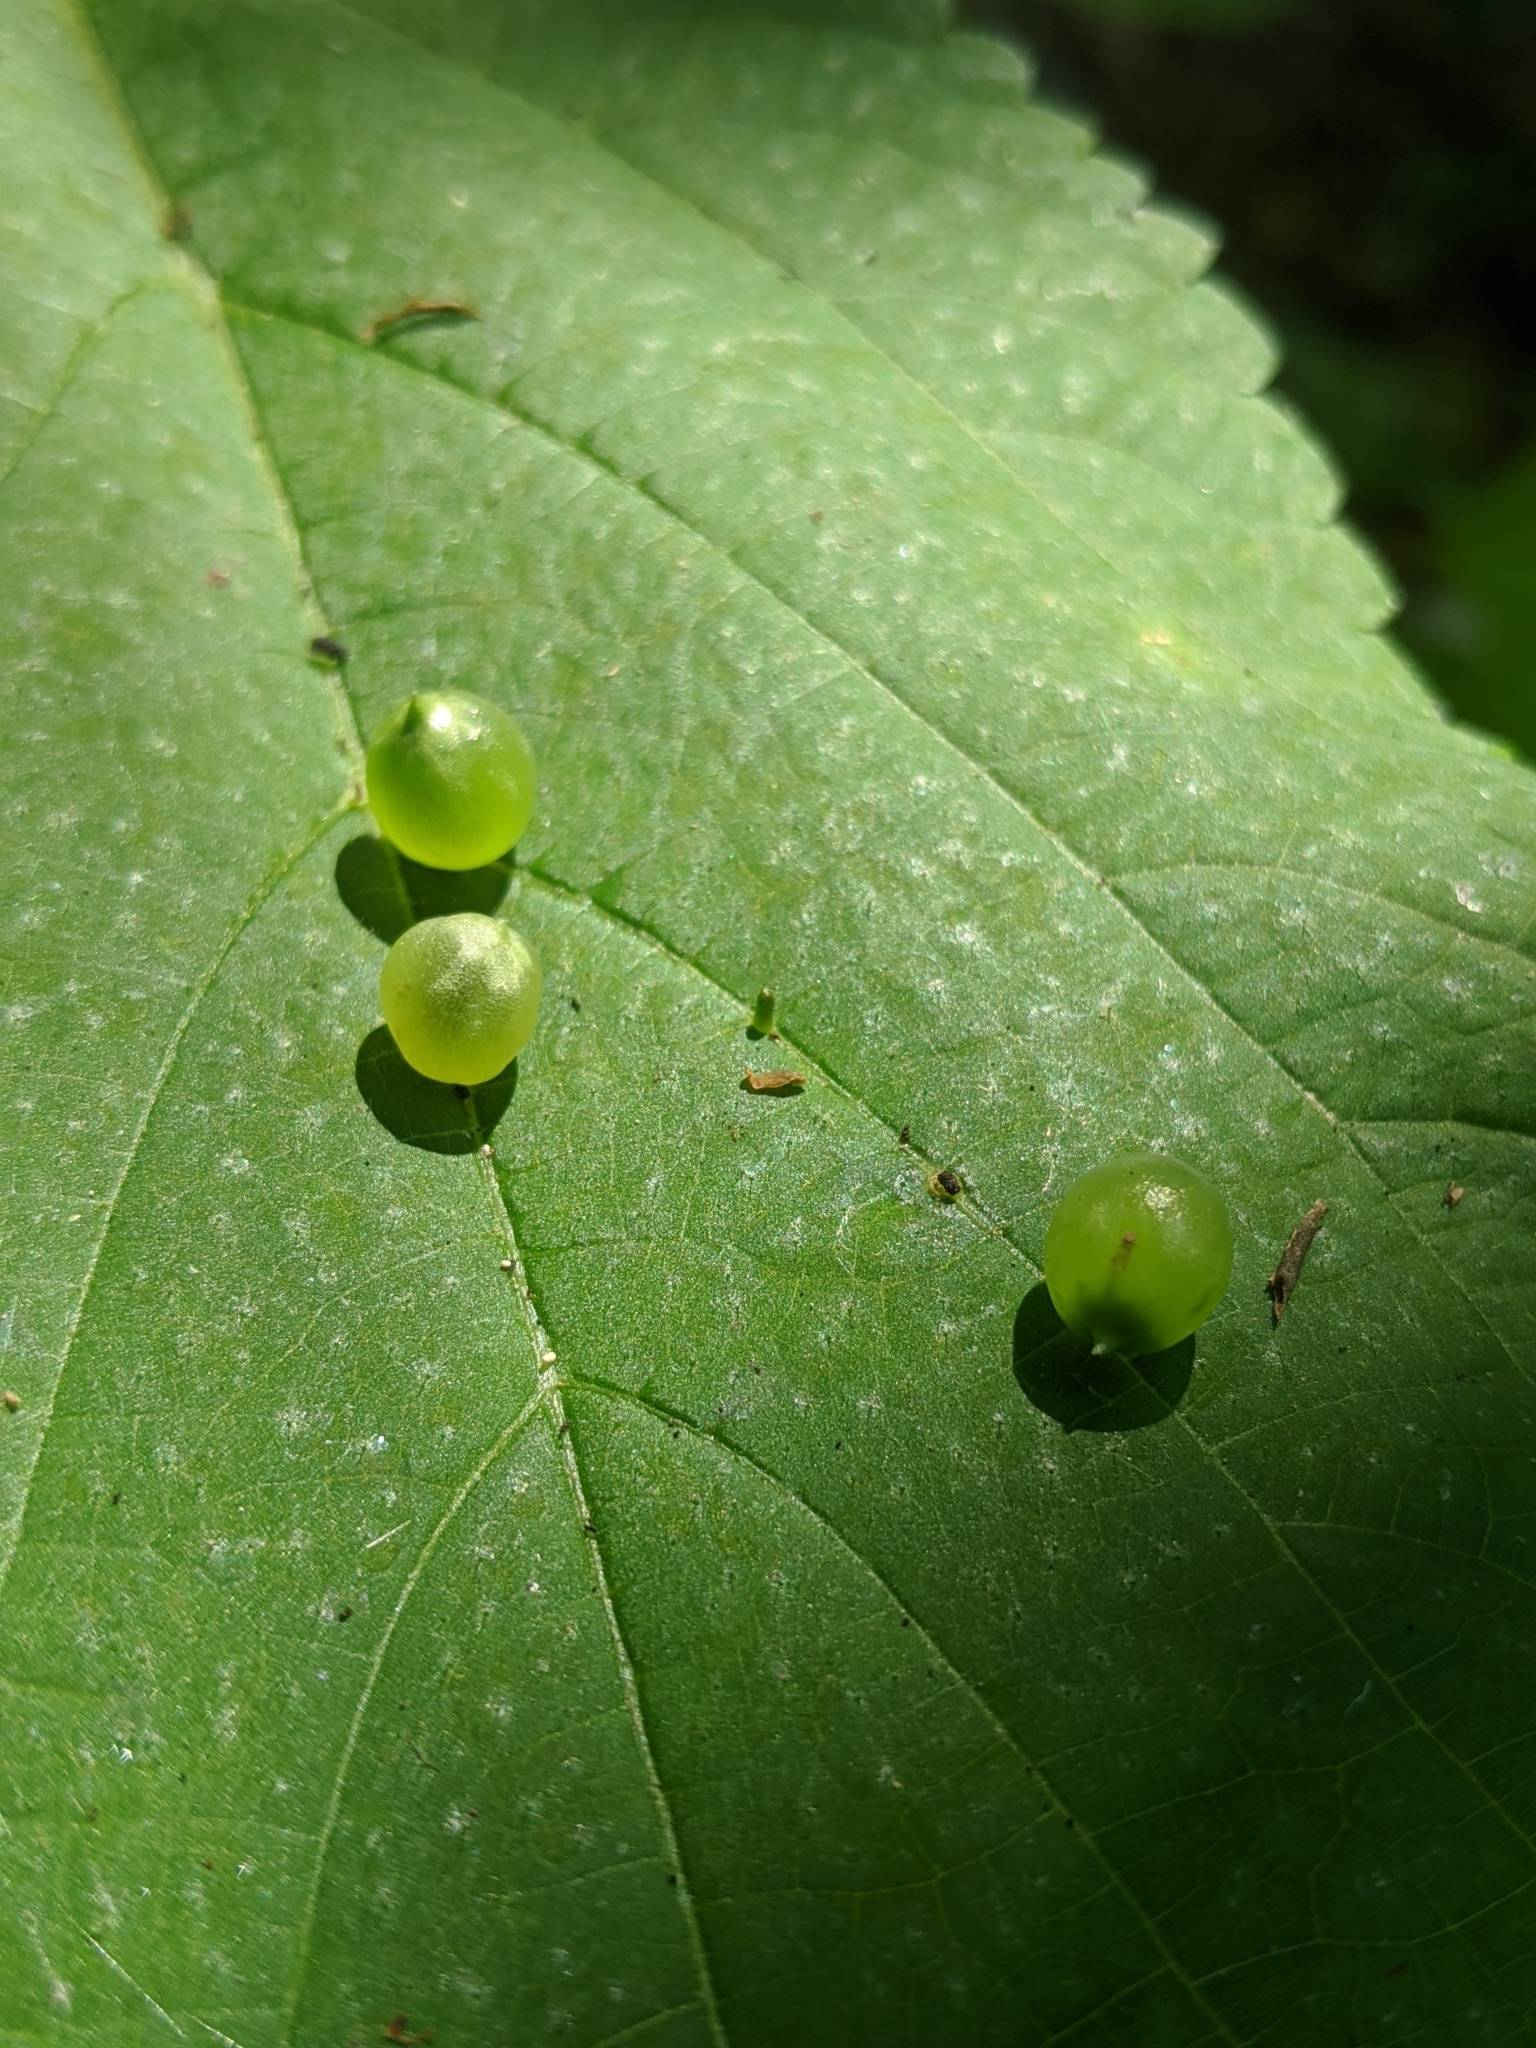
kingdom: Animalia
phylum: Arthropoda
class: Insecta
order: Diptera
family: Cecidomyiidae
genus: Dasineura
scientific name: Dasineura investita
